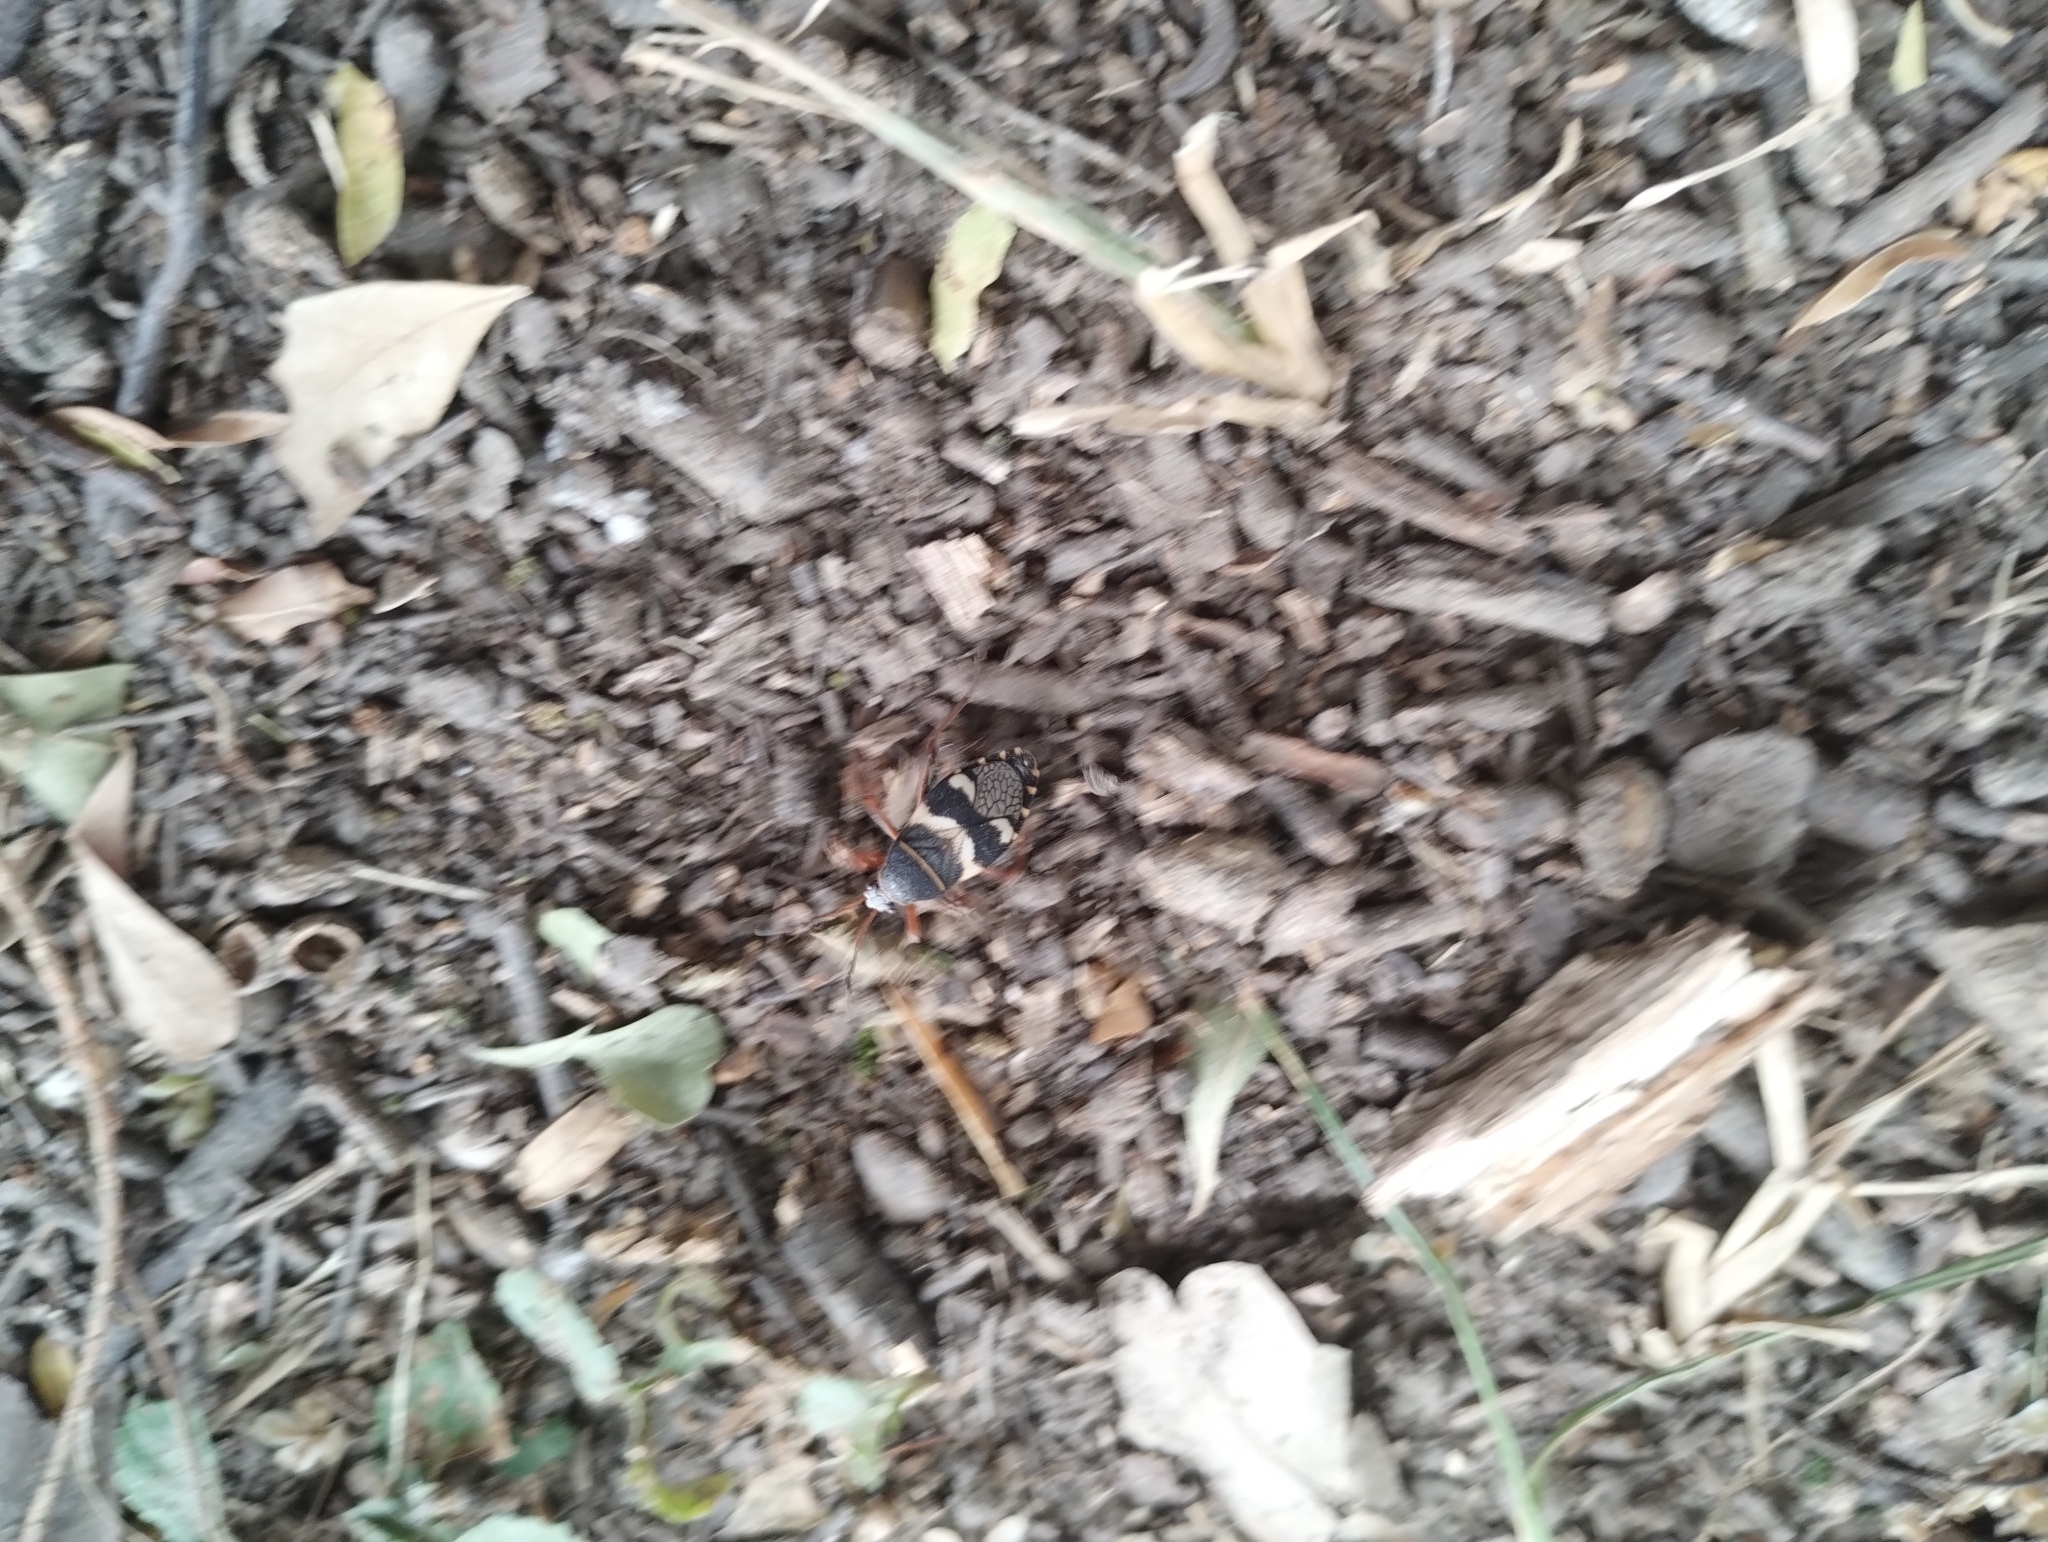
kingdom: Animalia
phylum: Arthropoda
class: Insecta
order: Hemiptera
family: Largidae
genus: Largus
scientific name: Largus priscillae
